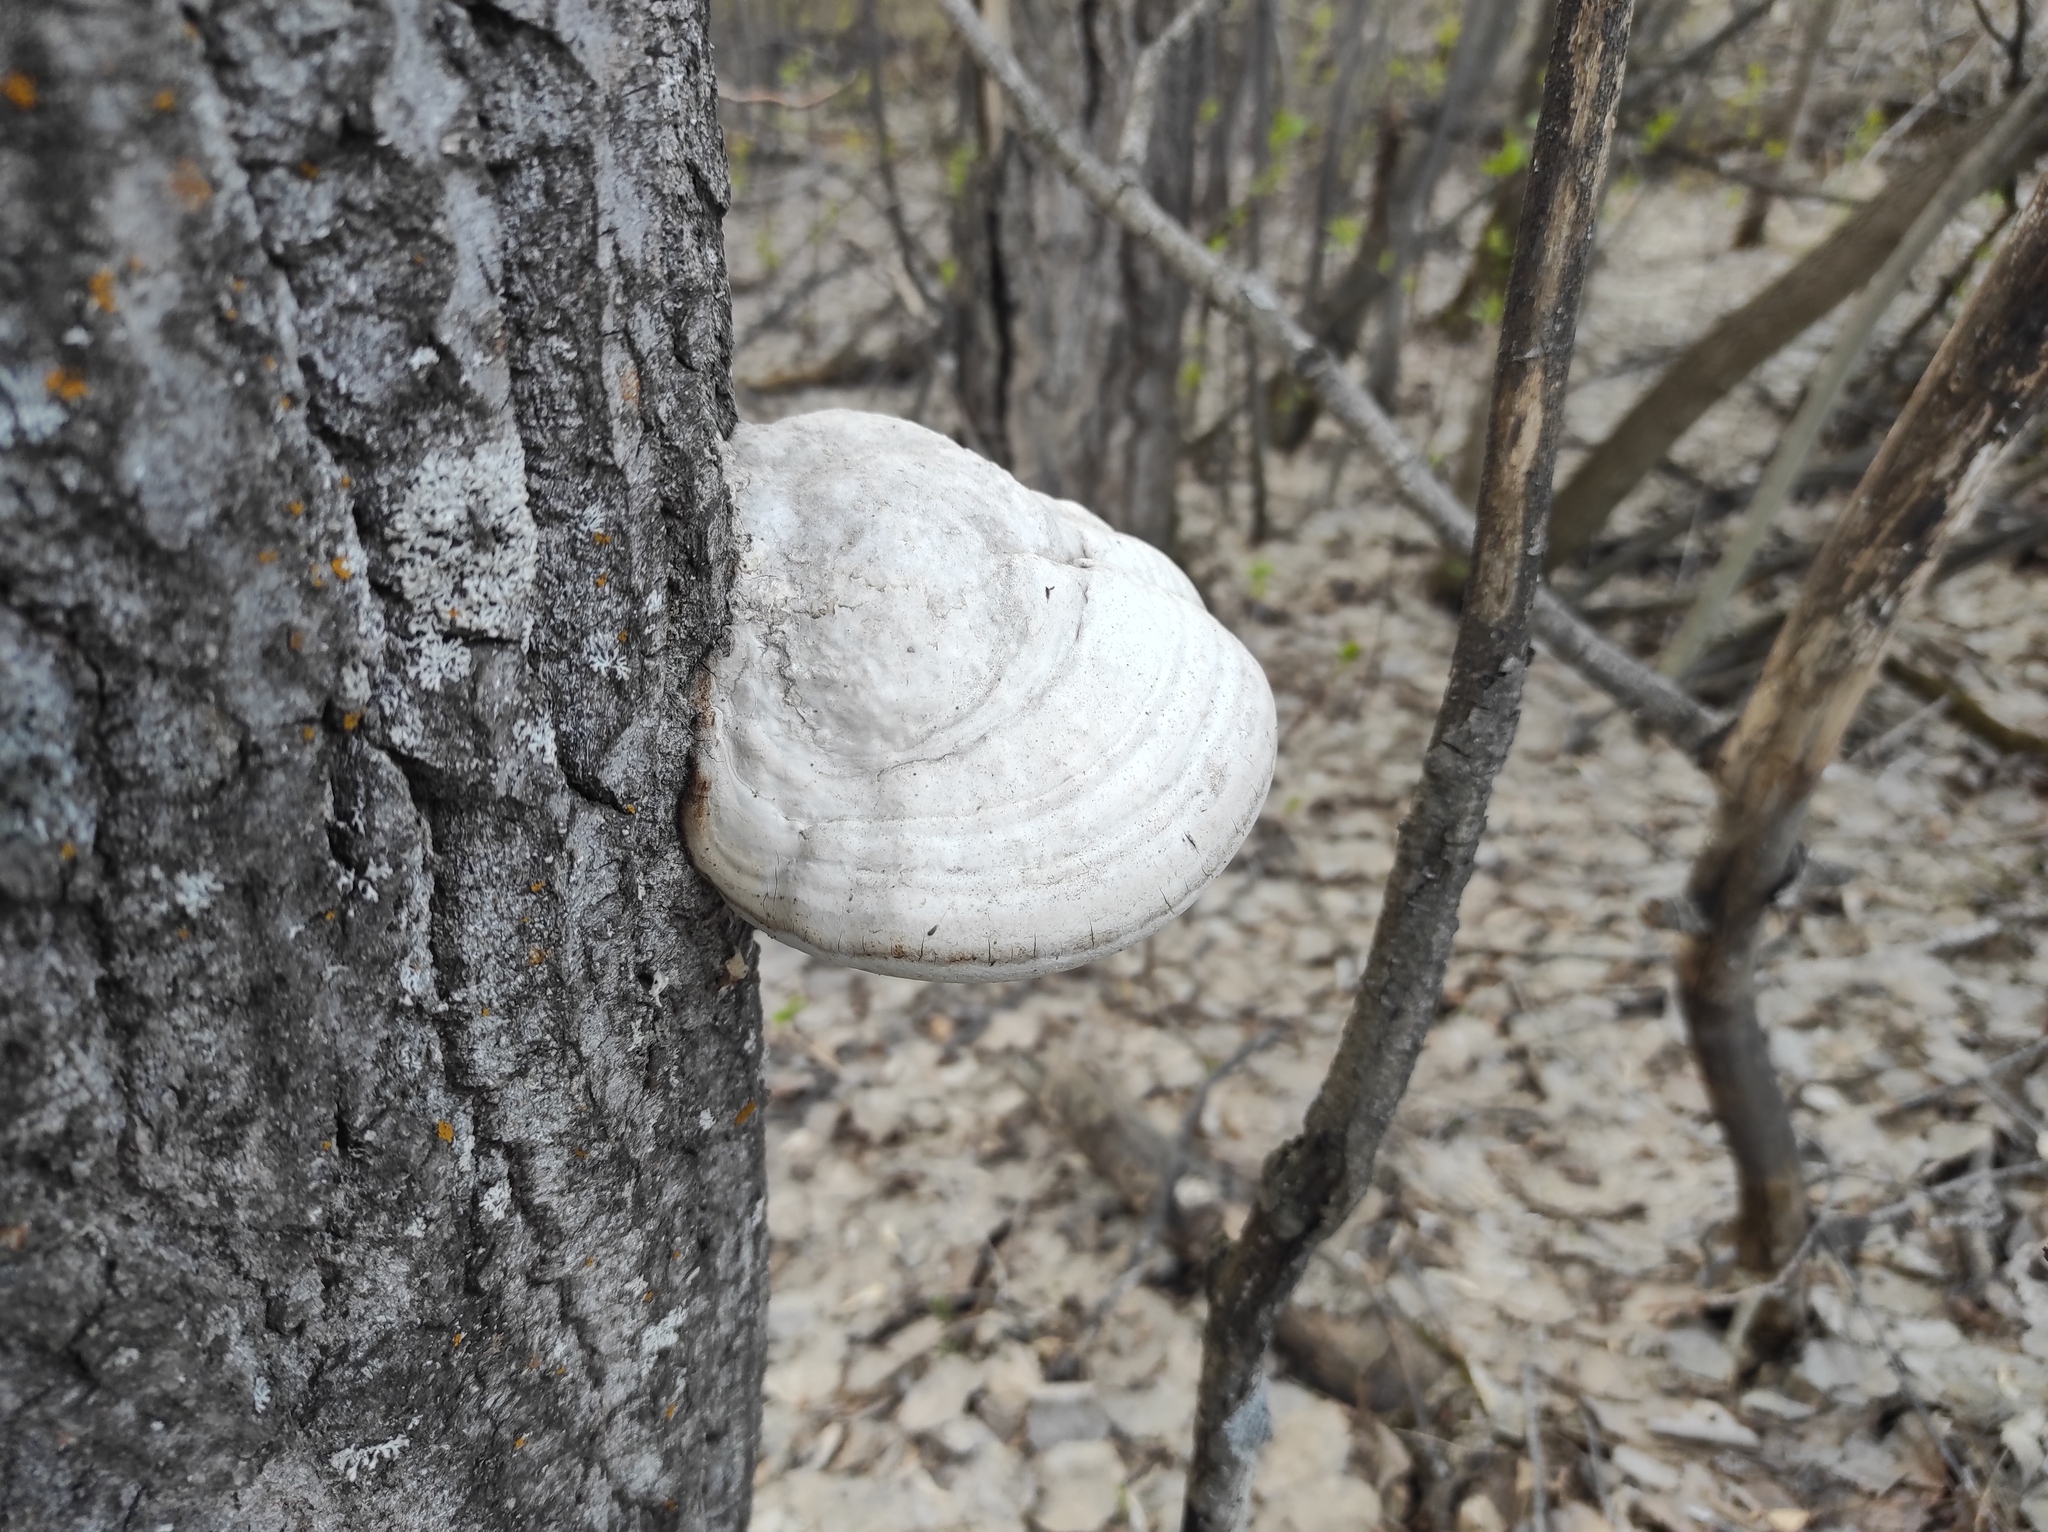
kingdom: Fungi
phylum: Basidiomycota
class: Agaricomycetes
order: Polyporales
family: Polyporaceae
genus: Fomes
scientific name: Fomes fomentarius
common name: Hoof fungus
